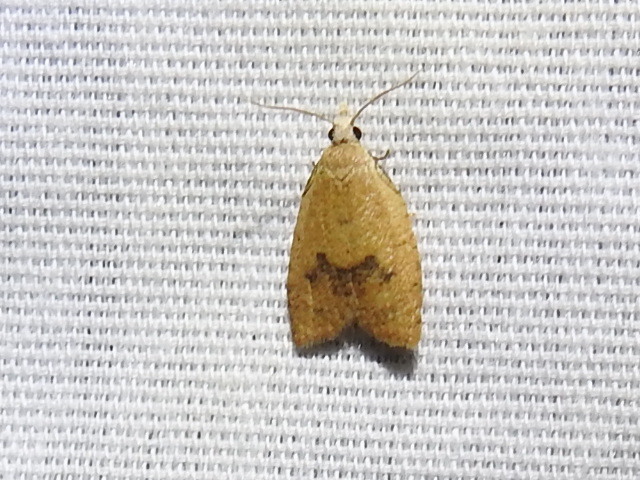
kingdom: Animalia
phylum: Arthropoda
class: Insecta
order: Lepidoptera
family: Tortricidae
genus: Sparganothoides
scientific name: Sparganothoides lentiginosana
